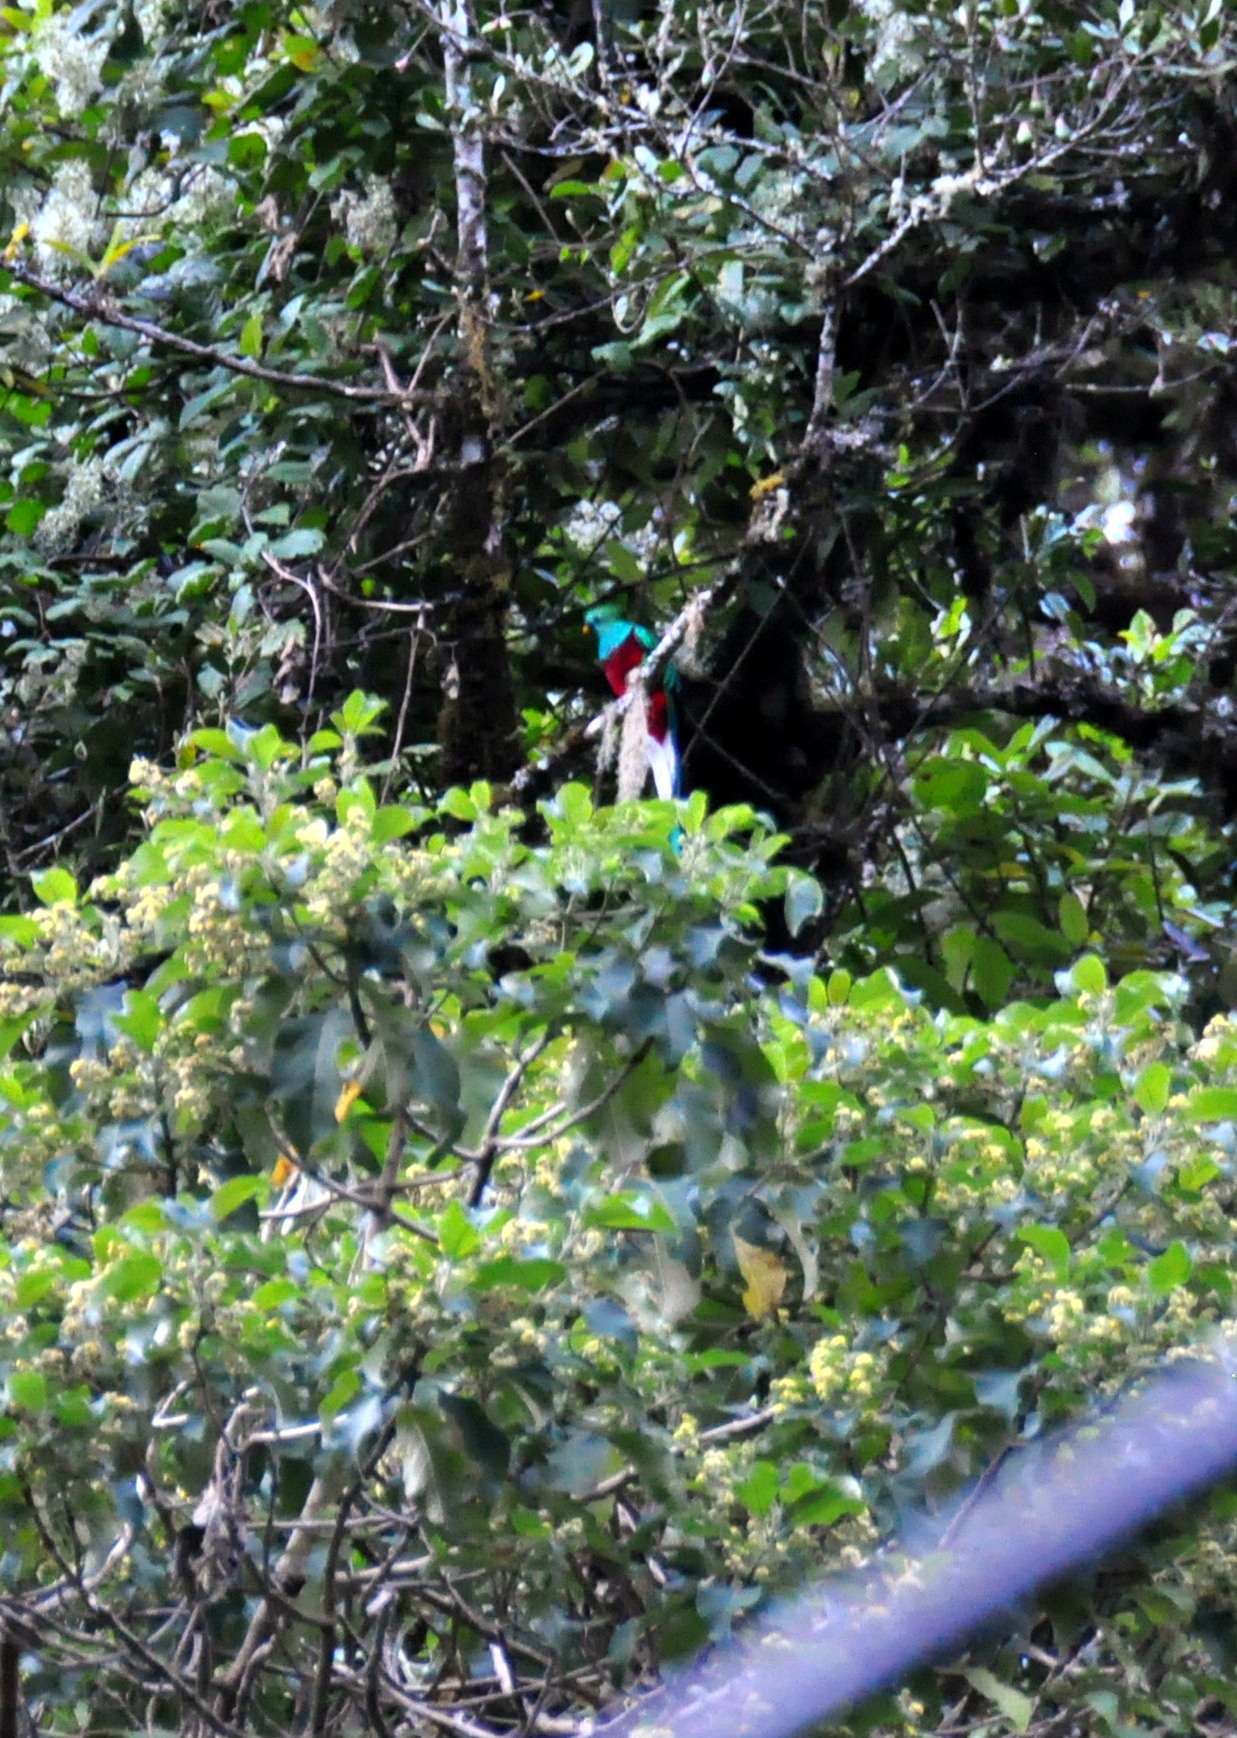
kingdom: Animalia
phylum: Chordata
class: Aves
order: Trogoniformes
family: Trogonidae
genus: Pharomachrus
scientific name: Pharomachrus mocinno
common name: Resplendent quetzal
